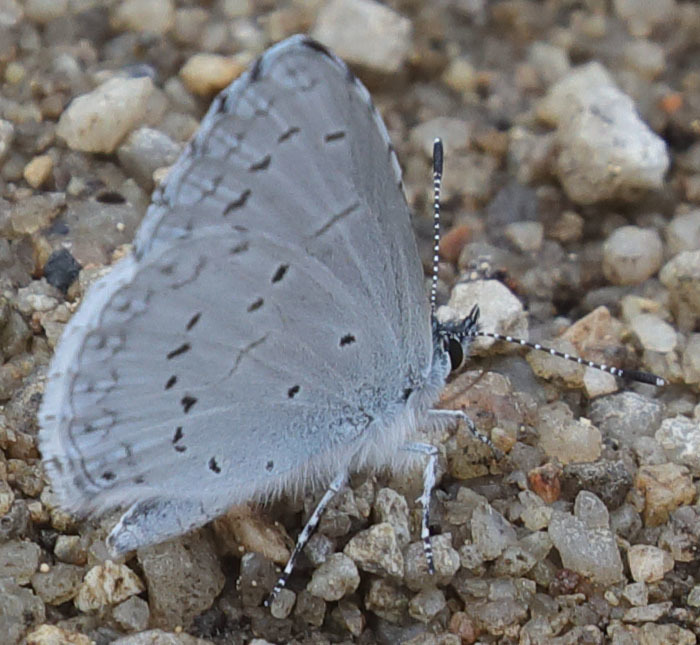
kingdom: Animalia
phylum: Arthropoda
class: Insecta
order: Lepidoptera
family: Lycaenidae
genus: Celastrina
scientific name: Celastrina ladon
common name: Spring azure
